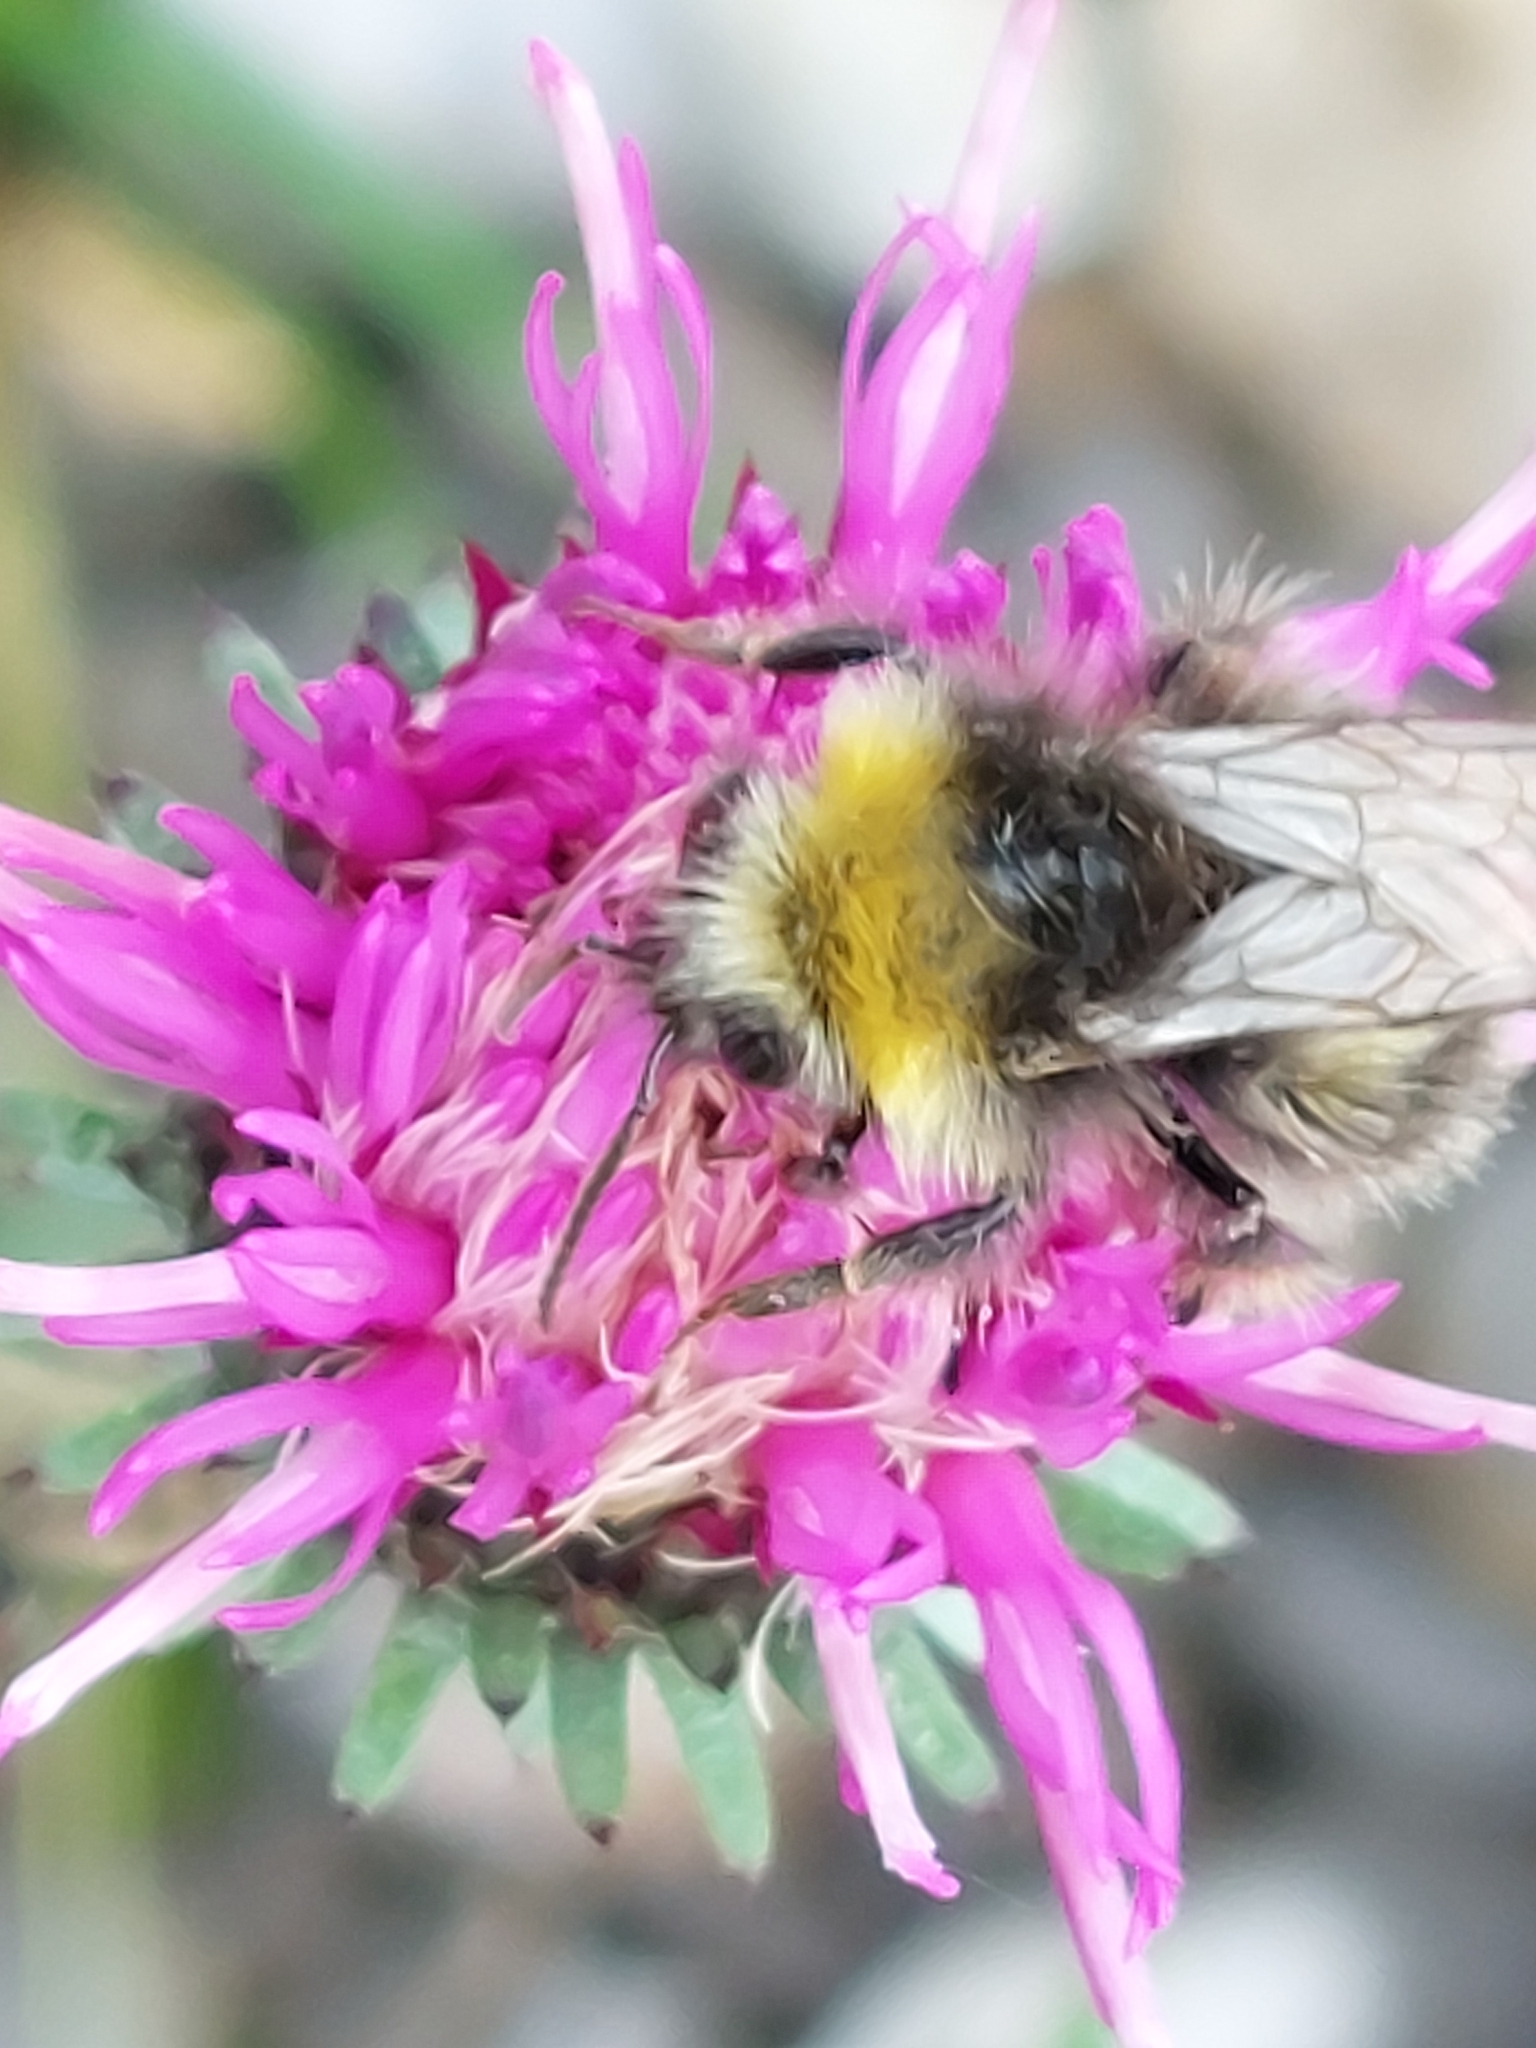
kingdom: Animalia
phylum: Arthropoda
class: Insecta
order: Hymenoptera
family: Apidae
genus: Bombus
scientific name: Bombus pratorum
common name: Early humble-bee
